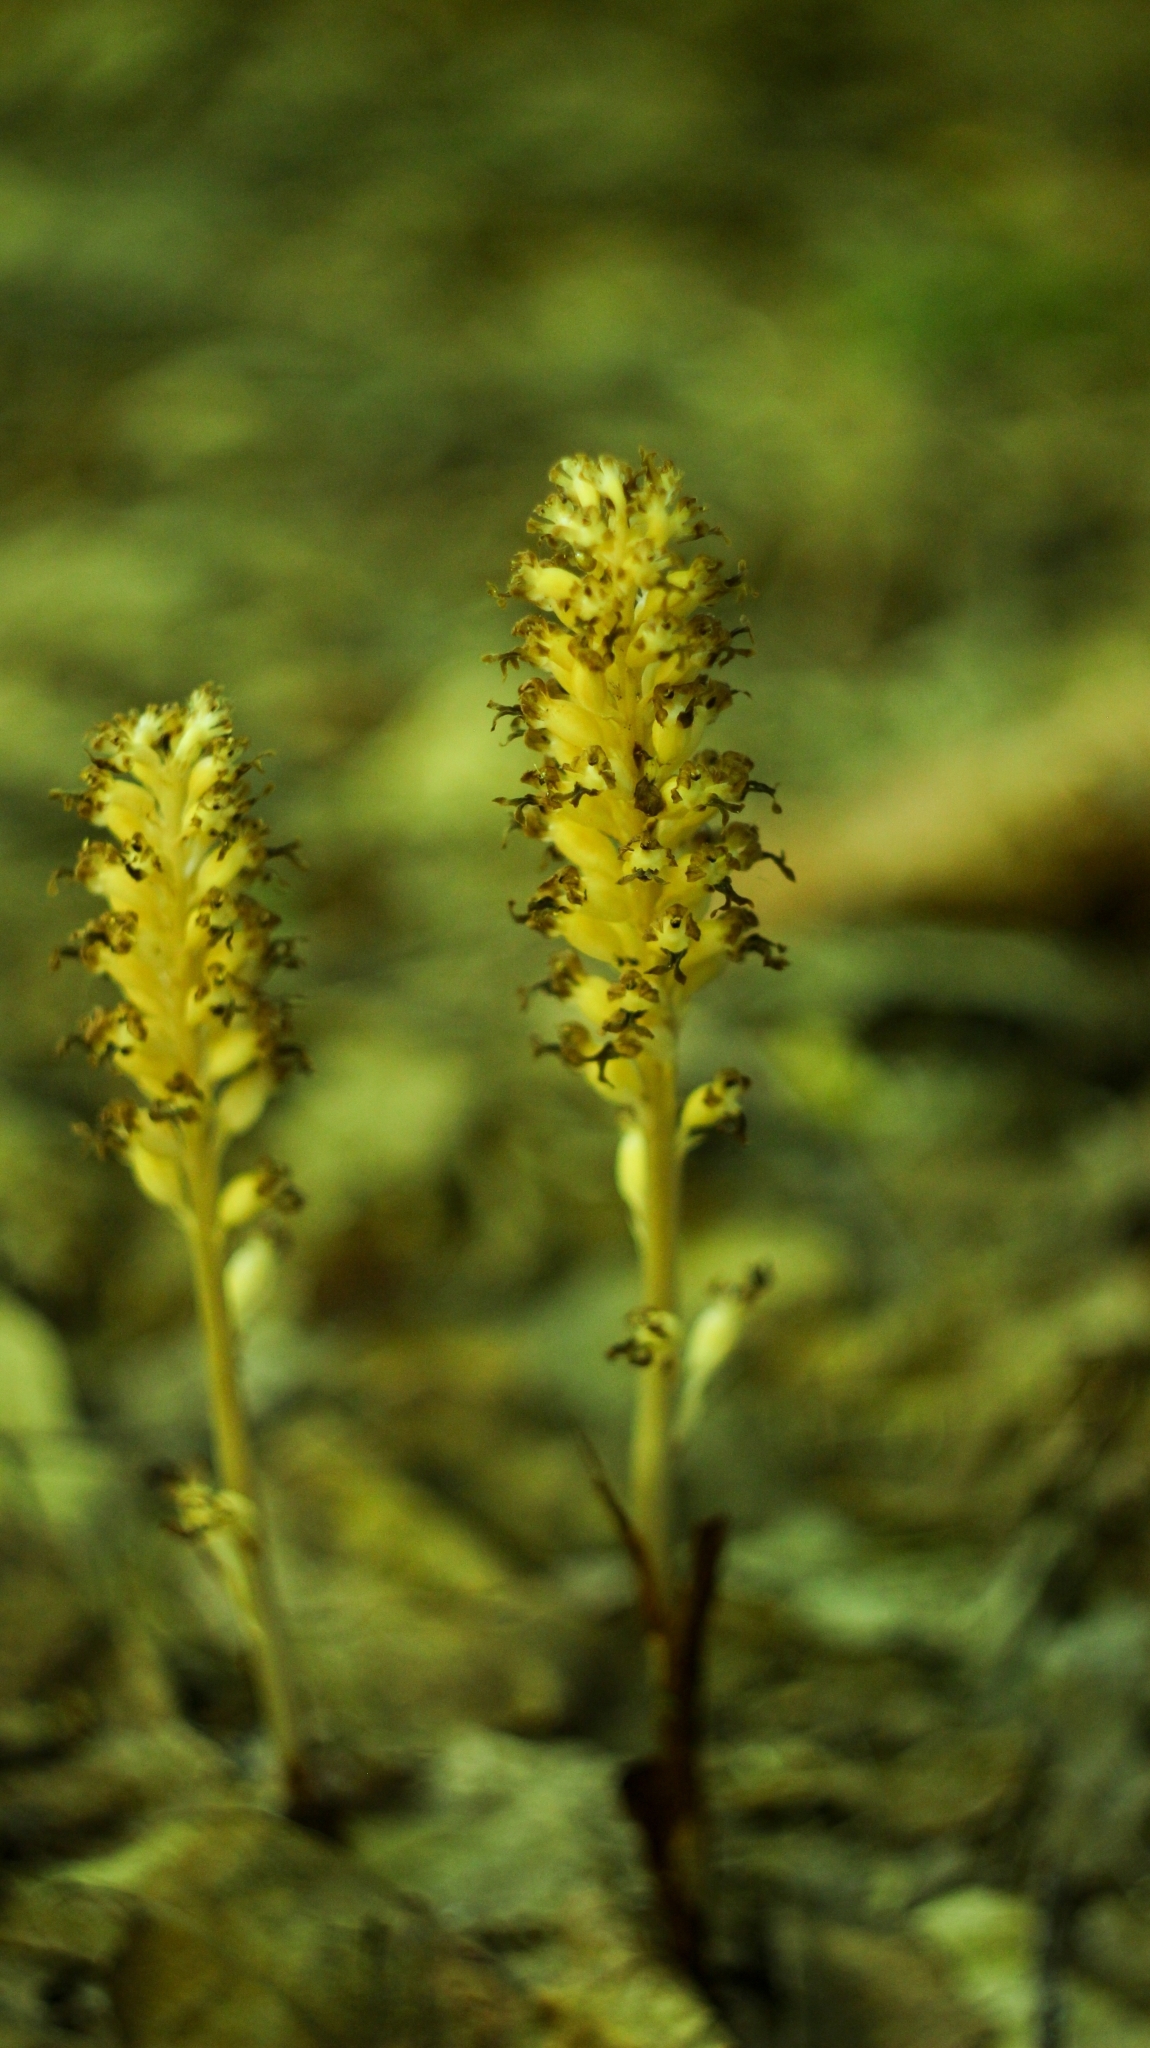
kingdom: Plantae
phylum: Tracheophyta
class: Liliopsida
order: Asparagales
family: Orchidaceae
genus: Neottia
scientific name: Neottia nidus-avis
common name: Bird's-nest orchid
